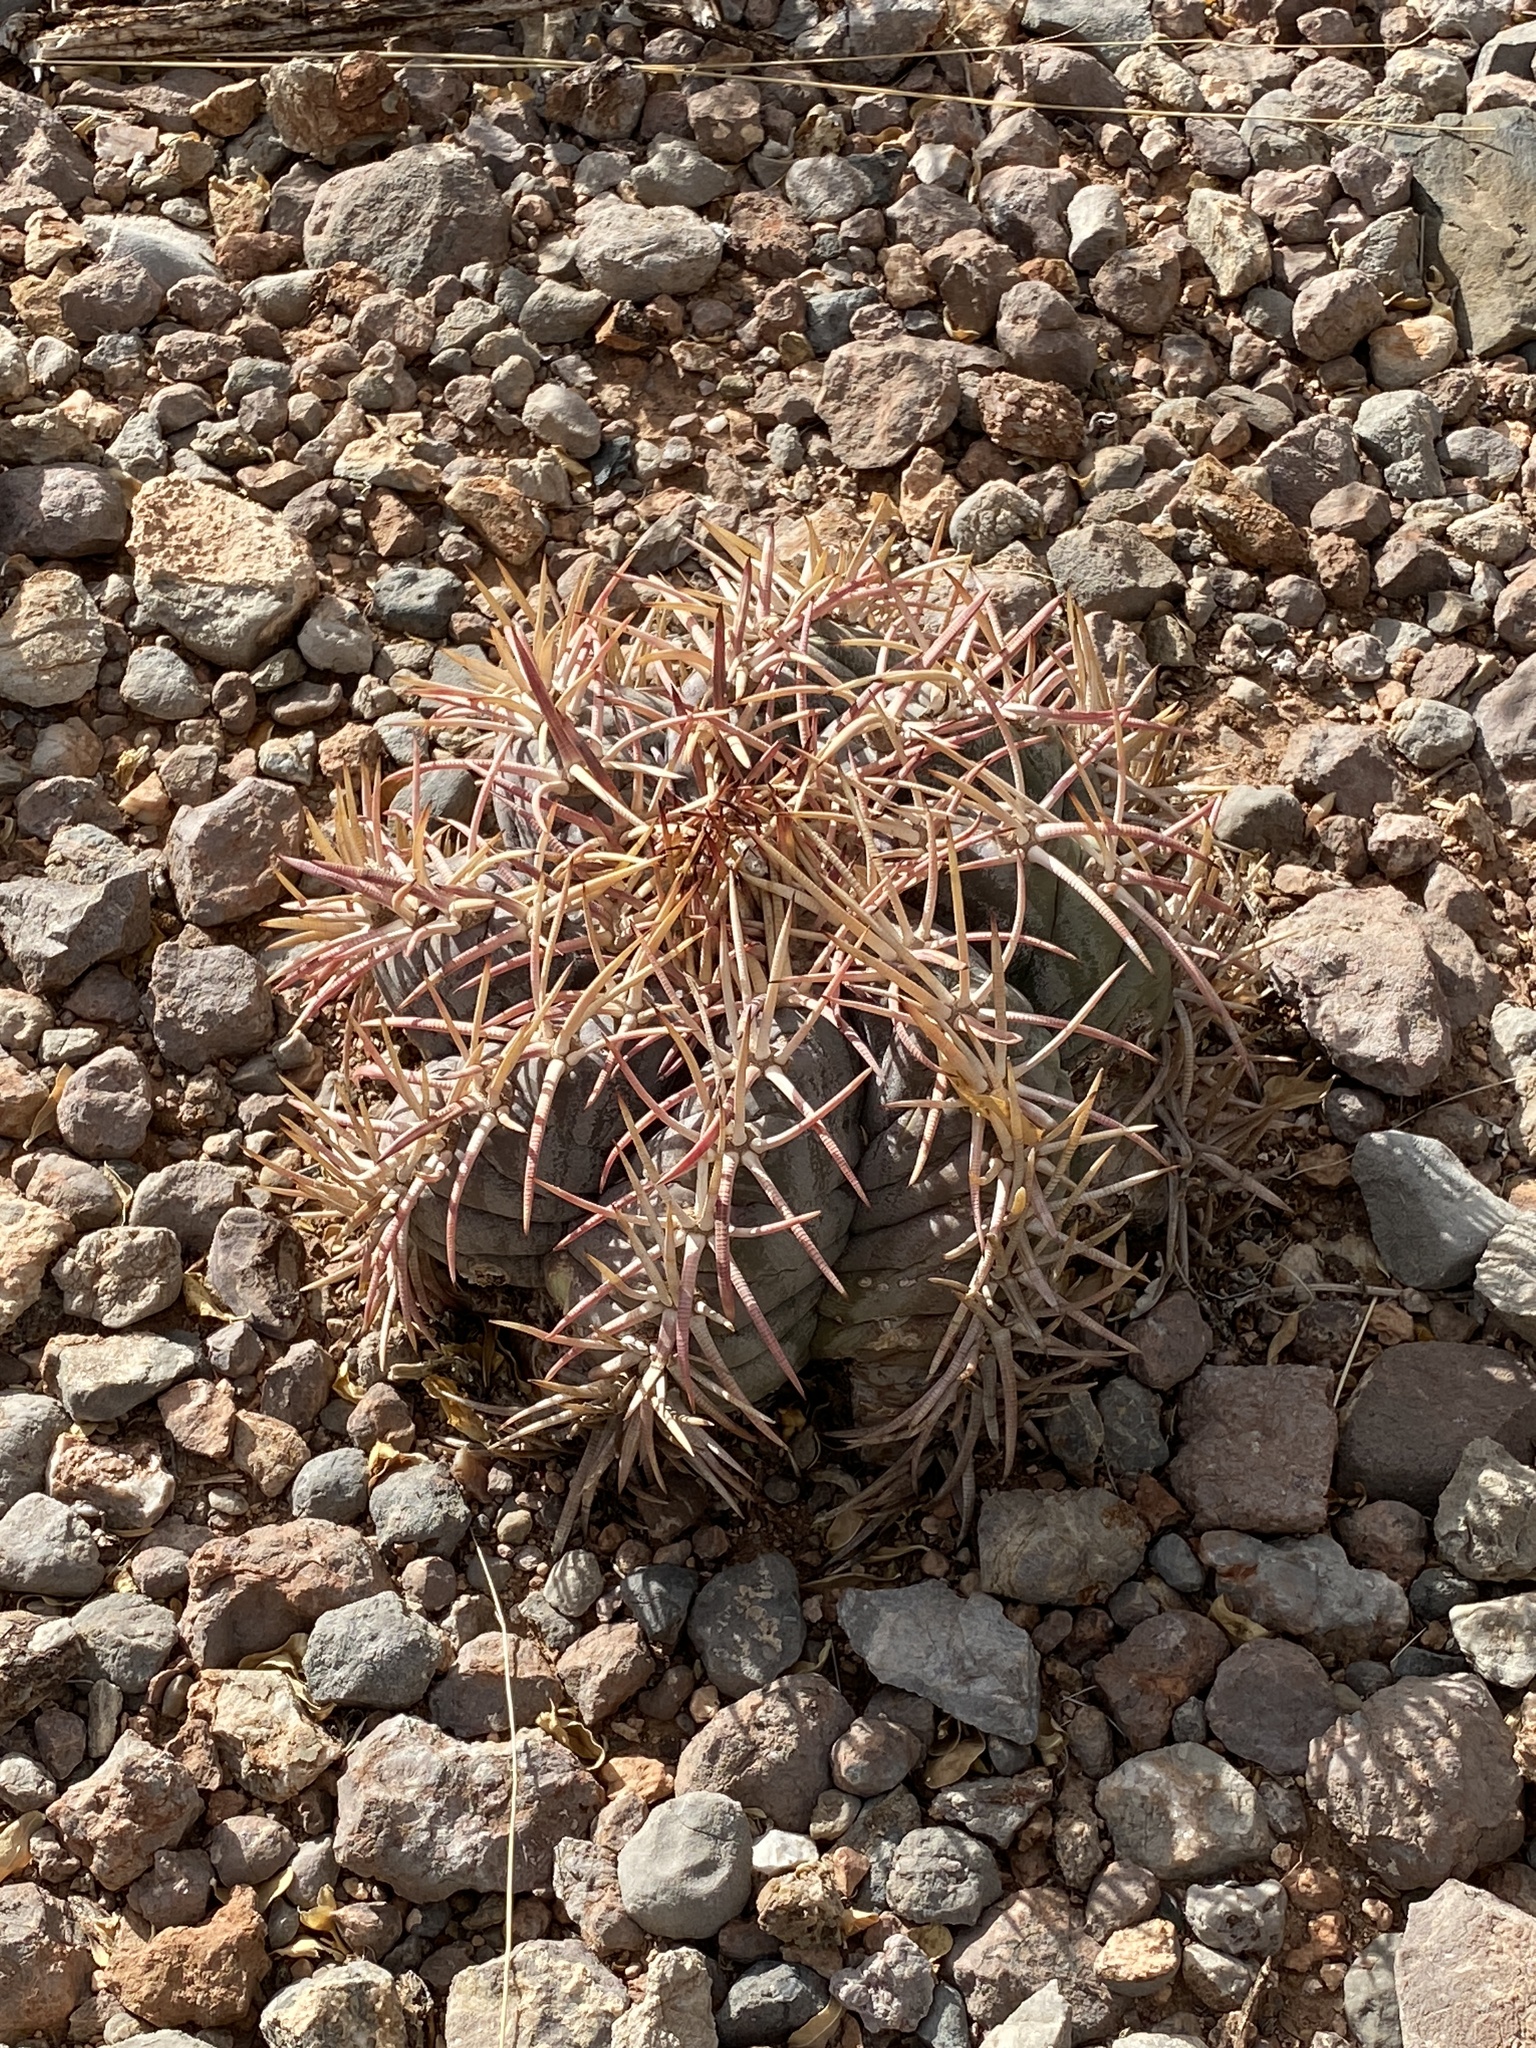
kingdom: Plantae
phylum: Tracheophyta
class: Magnoliopsida
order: Caryophyllales
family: Cactaceae
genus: Echinocactus
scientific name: Echinocactus horizonthalonius
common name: Devilshead
